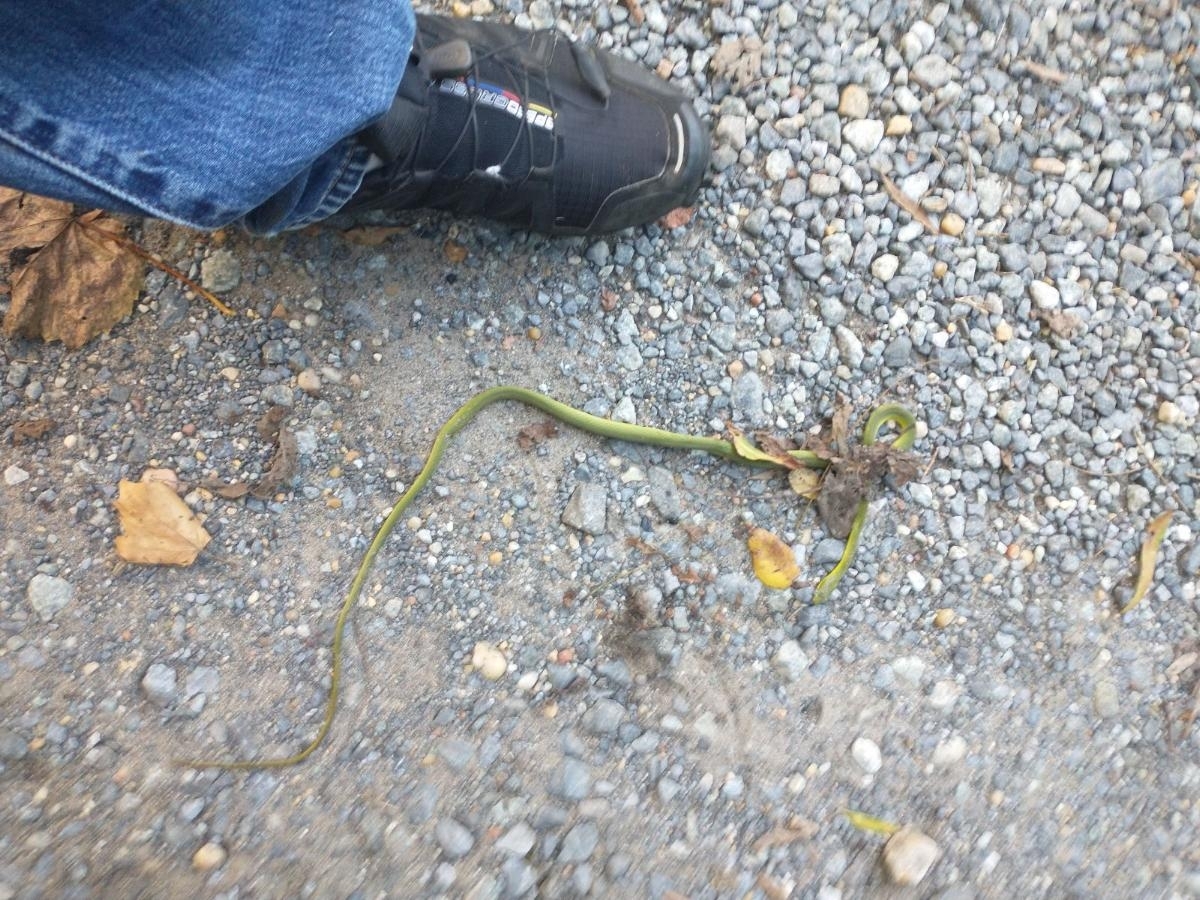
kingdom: Animalia
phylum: Chordata
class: Squamata
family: Colubridae
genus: Opheodrys
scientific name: Opheodrys aestivus
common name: Rough greensnake
